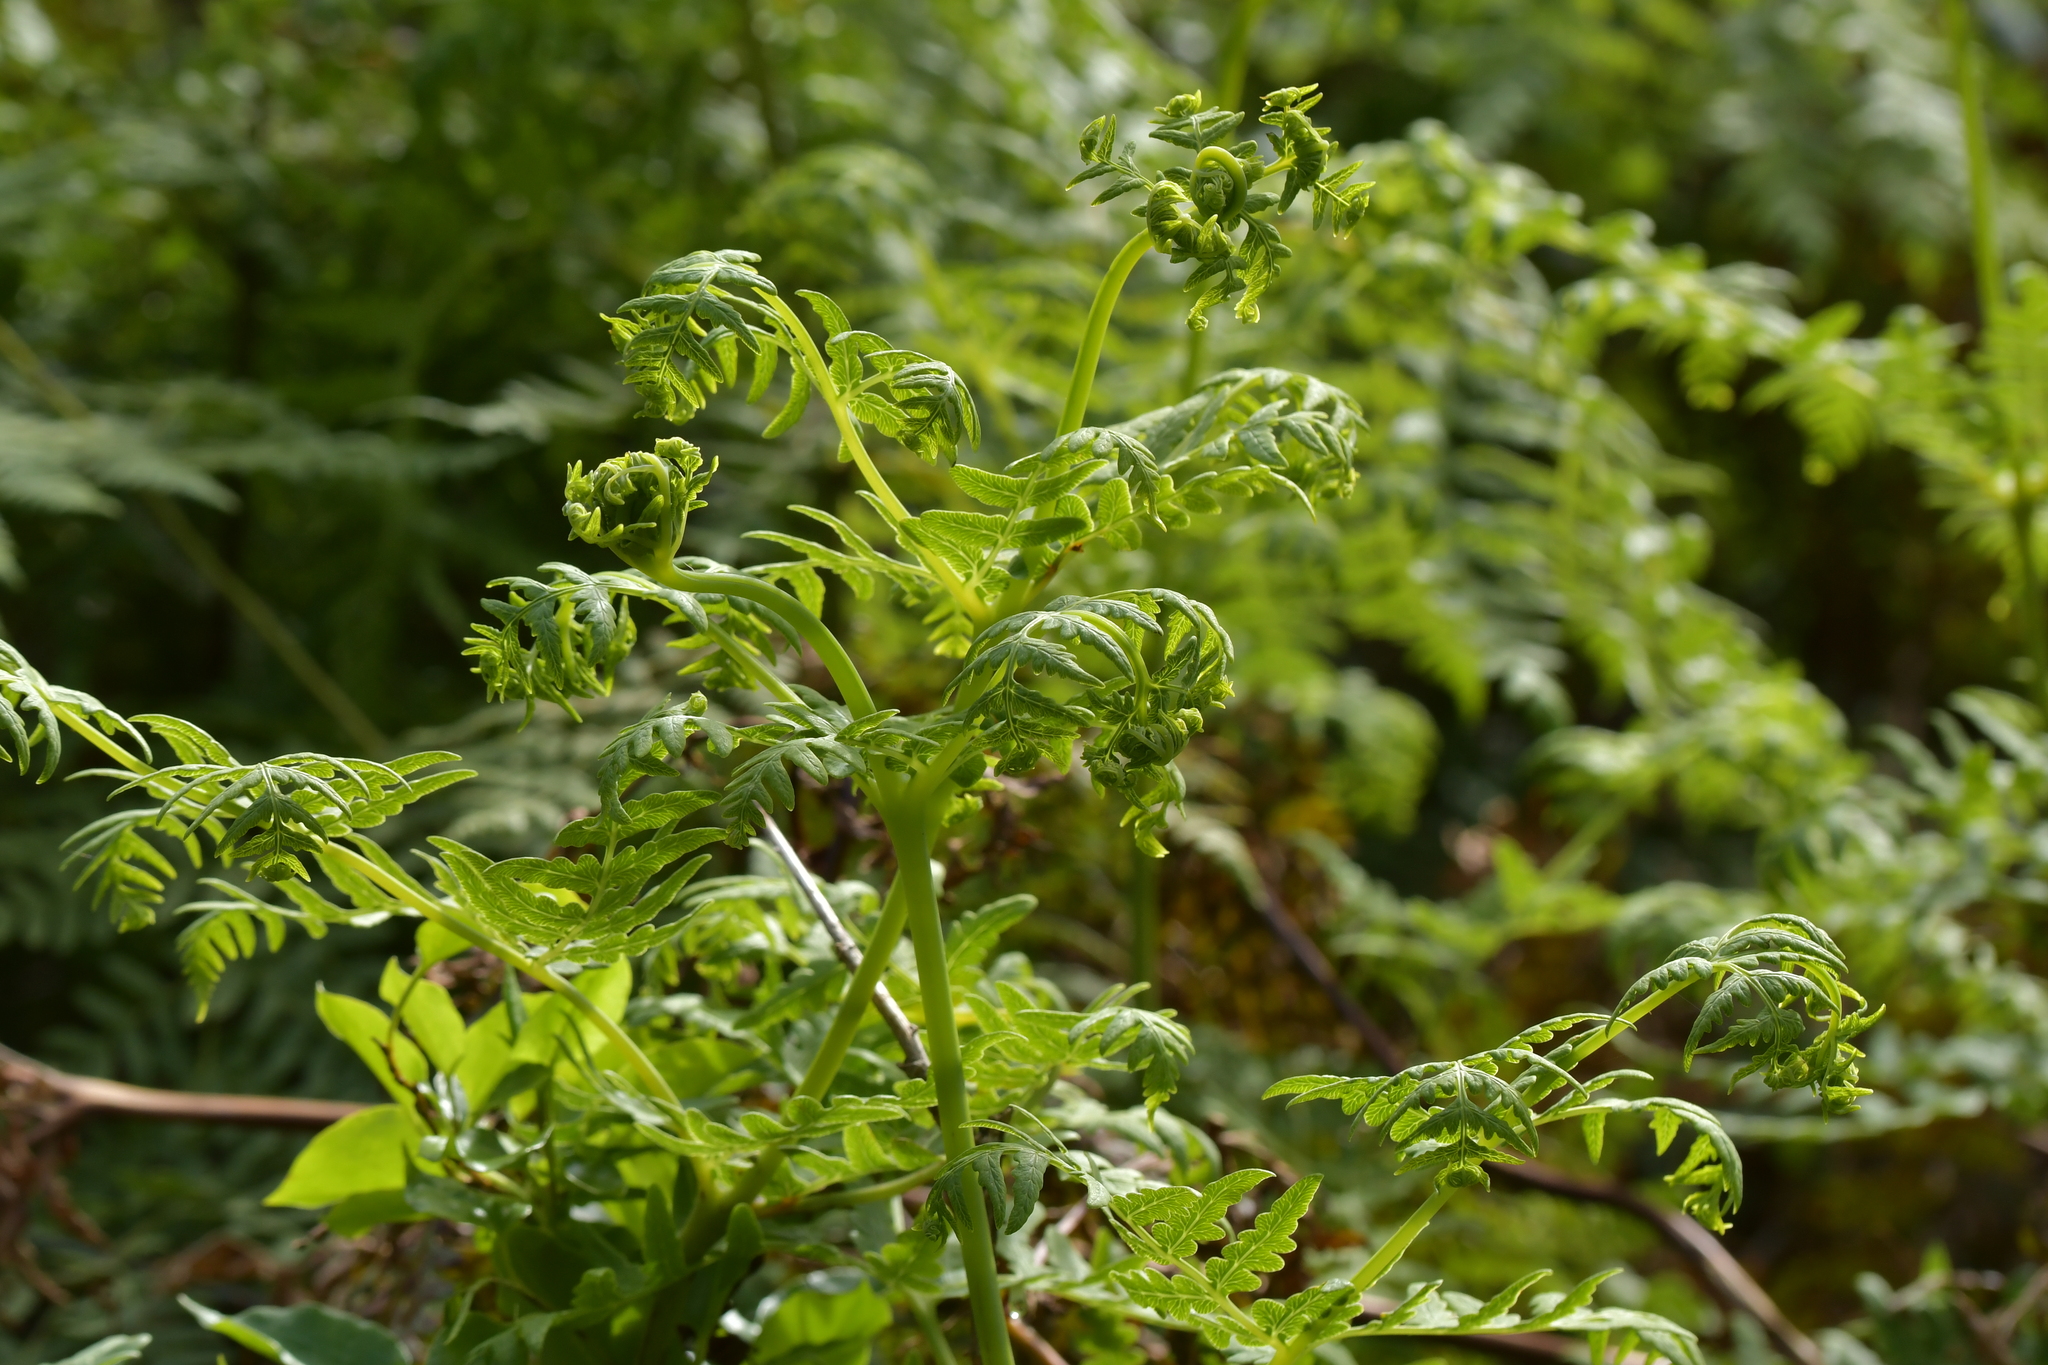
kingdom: Plantae
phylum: Tracheophyta
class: Polypodiopsida
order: Polypodiales
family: Dennstaedtiaceae
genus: Histiopteris
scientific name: Histiopteris incisa
